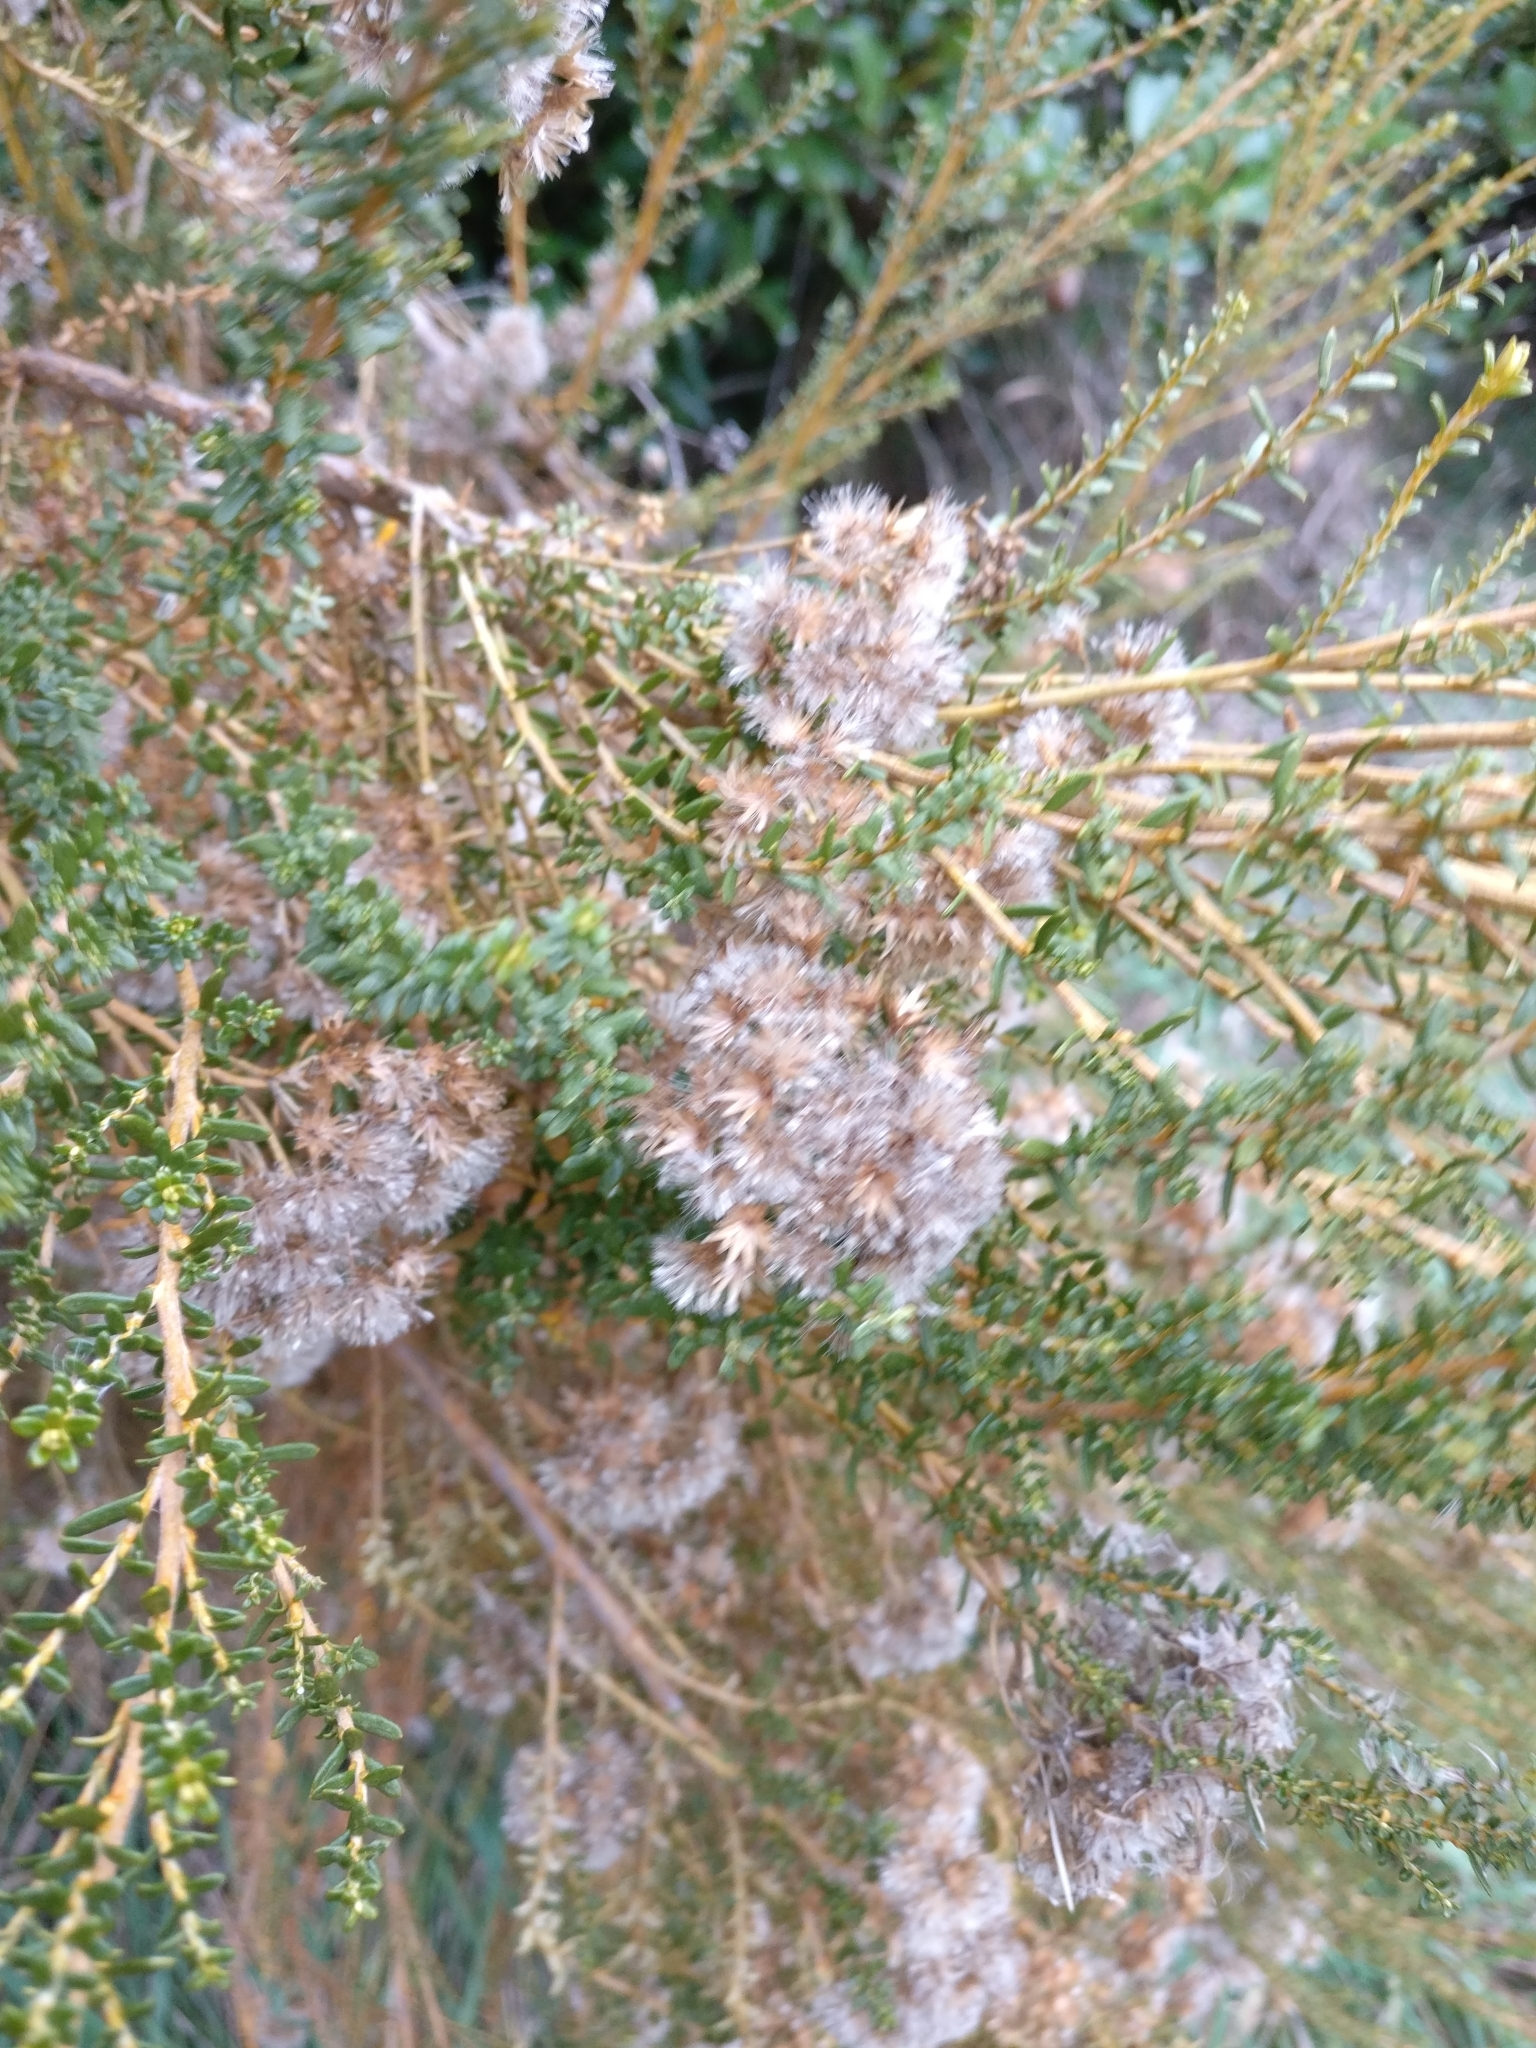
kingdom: Plantae
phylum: Tracheophyta
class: Magnoliopsida
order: Asterales
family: Asteraceae
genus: Ozothamnus
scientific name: Ozothamnus leptophyllus
